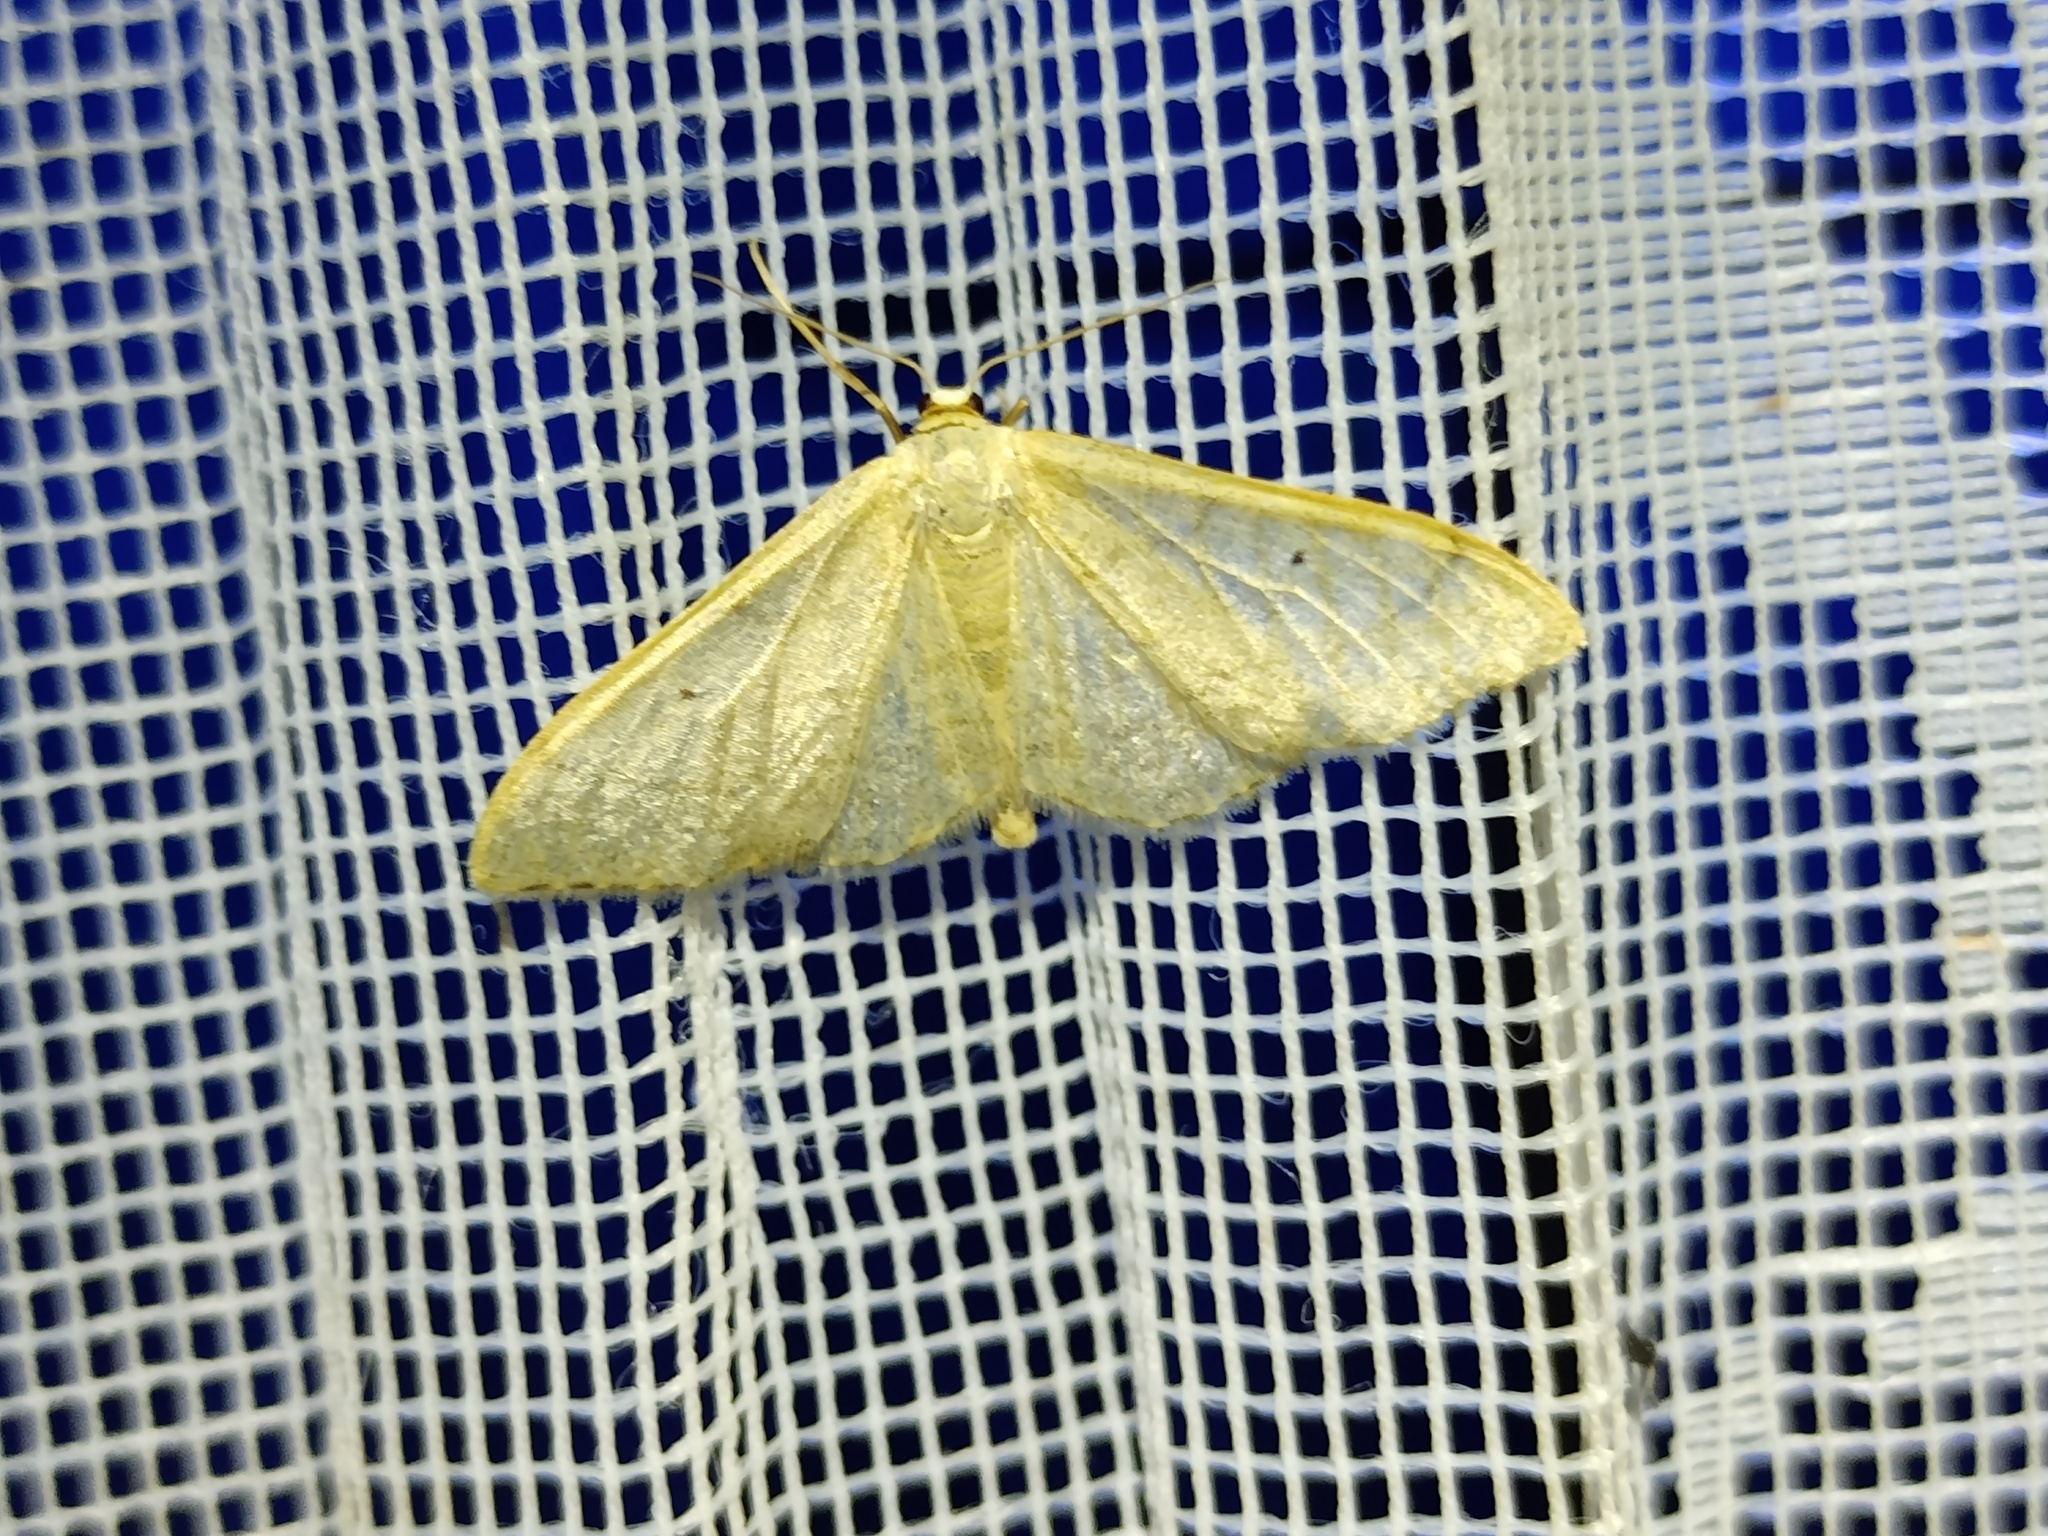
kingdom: Animalia
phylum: Arthropoda
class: Insecta
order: Lepidoptera
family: Geometridae
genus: Idaea
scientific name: Idaea straminata
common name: Plain wave
